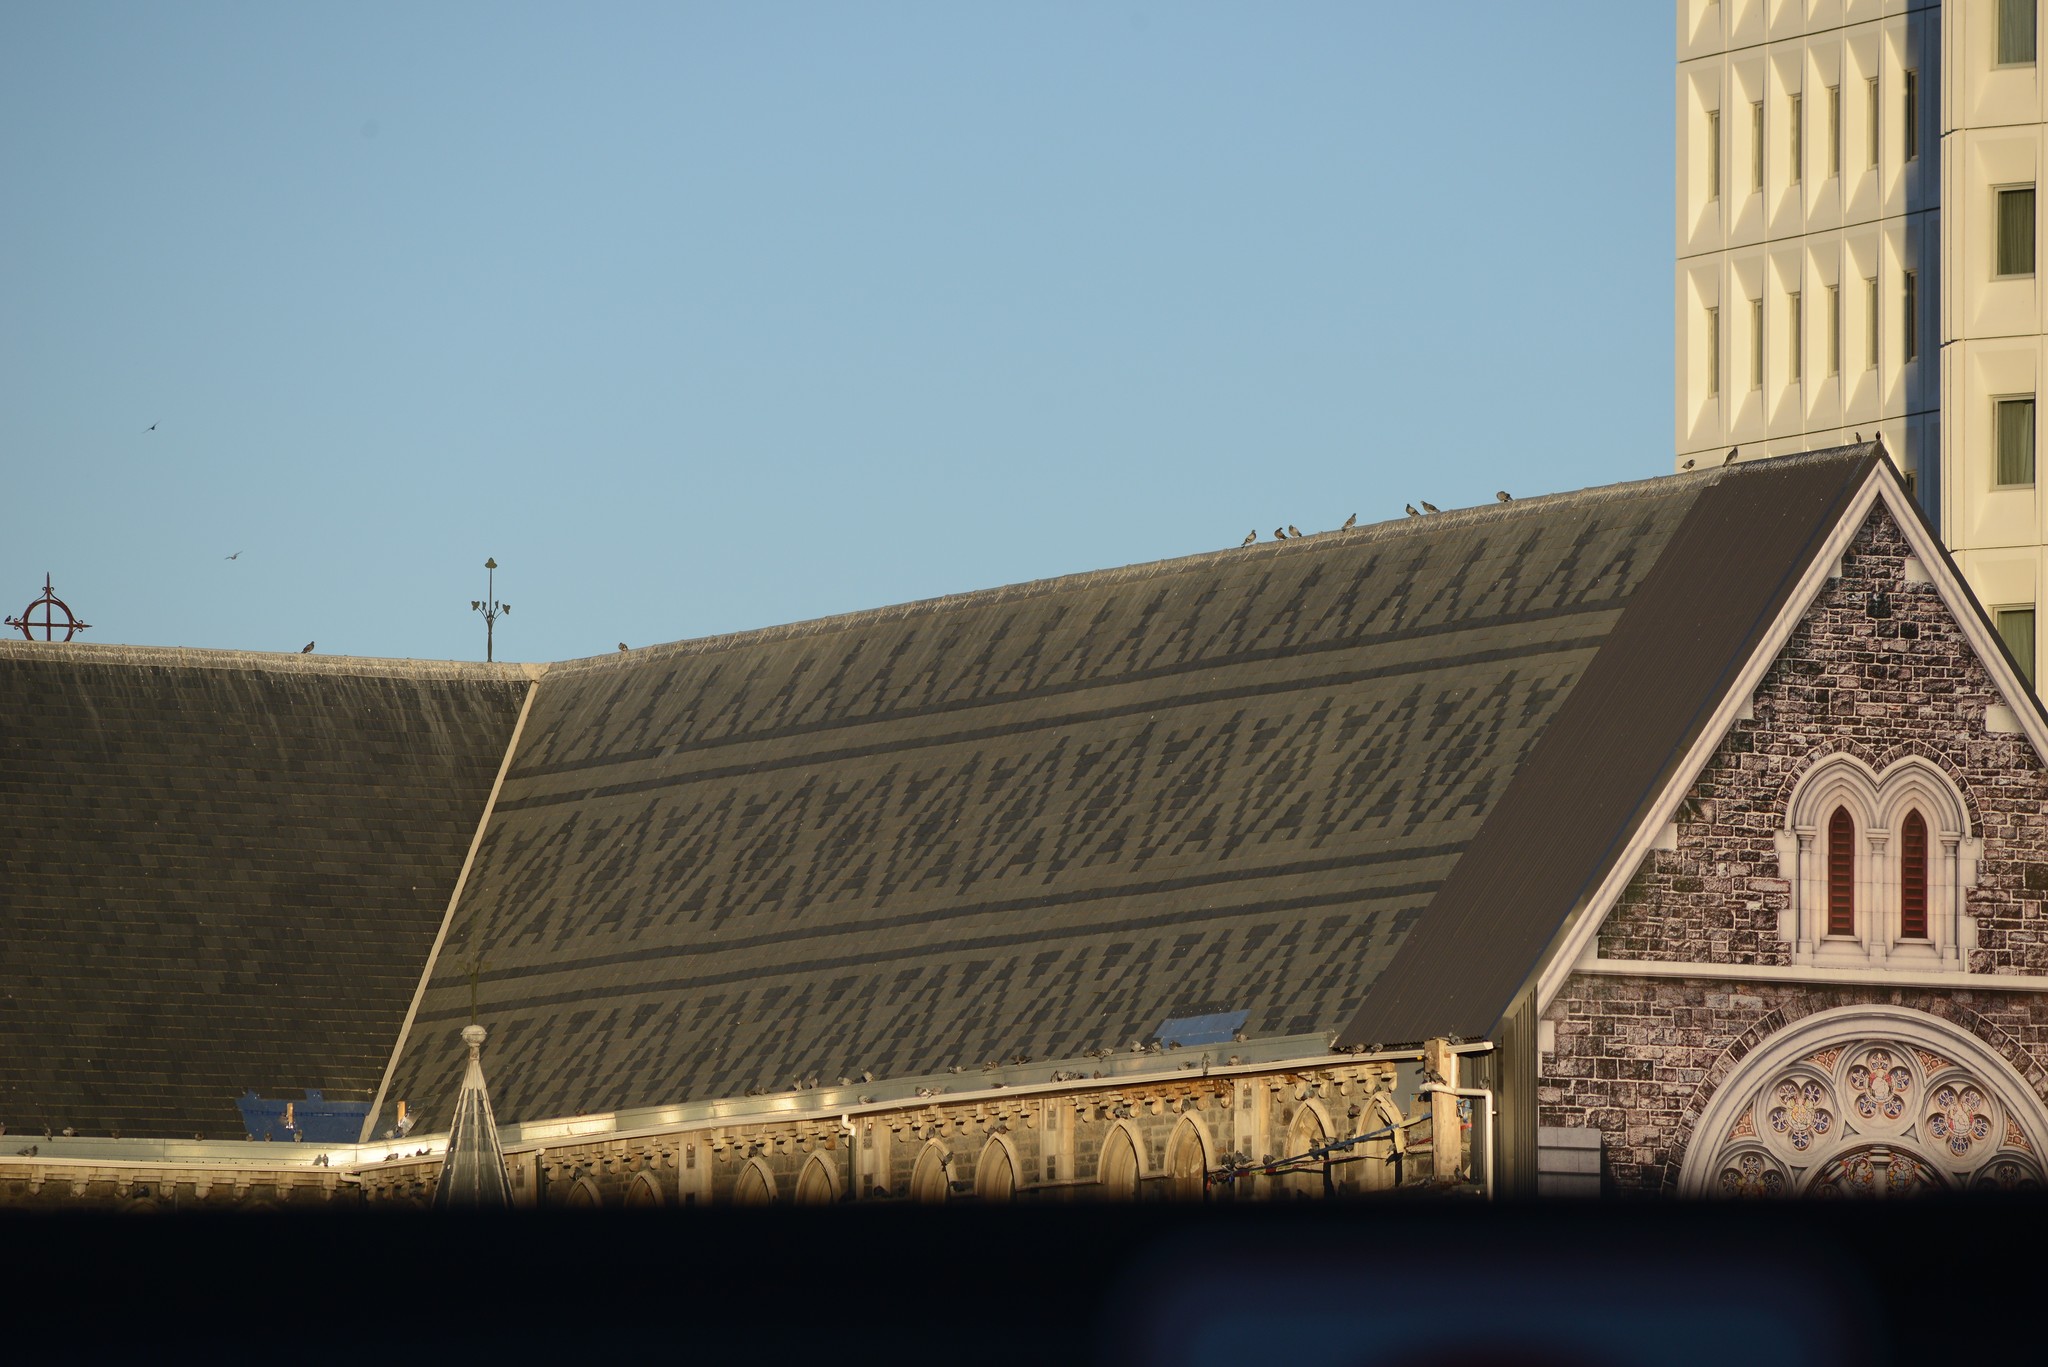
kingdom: Animalia
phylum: Chordata
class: Aves
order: Columbiformes
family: Columbidae
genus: Columba
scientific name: Columba livia
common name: Rock pigeon
